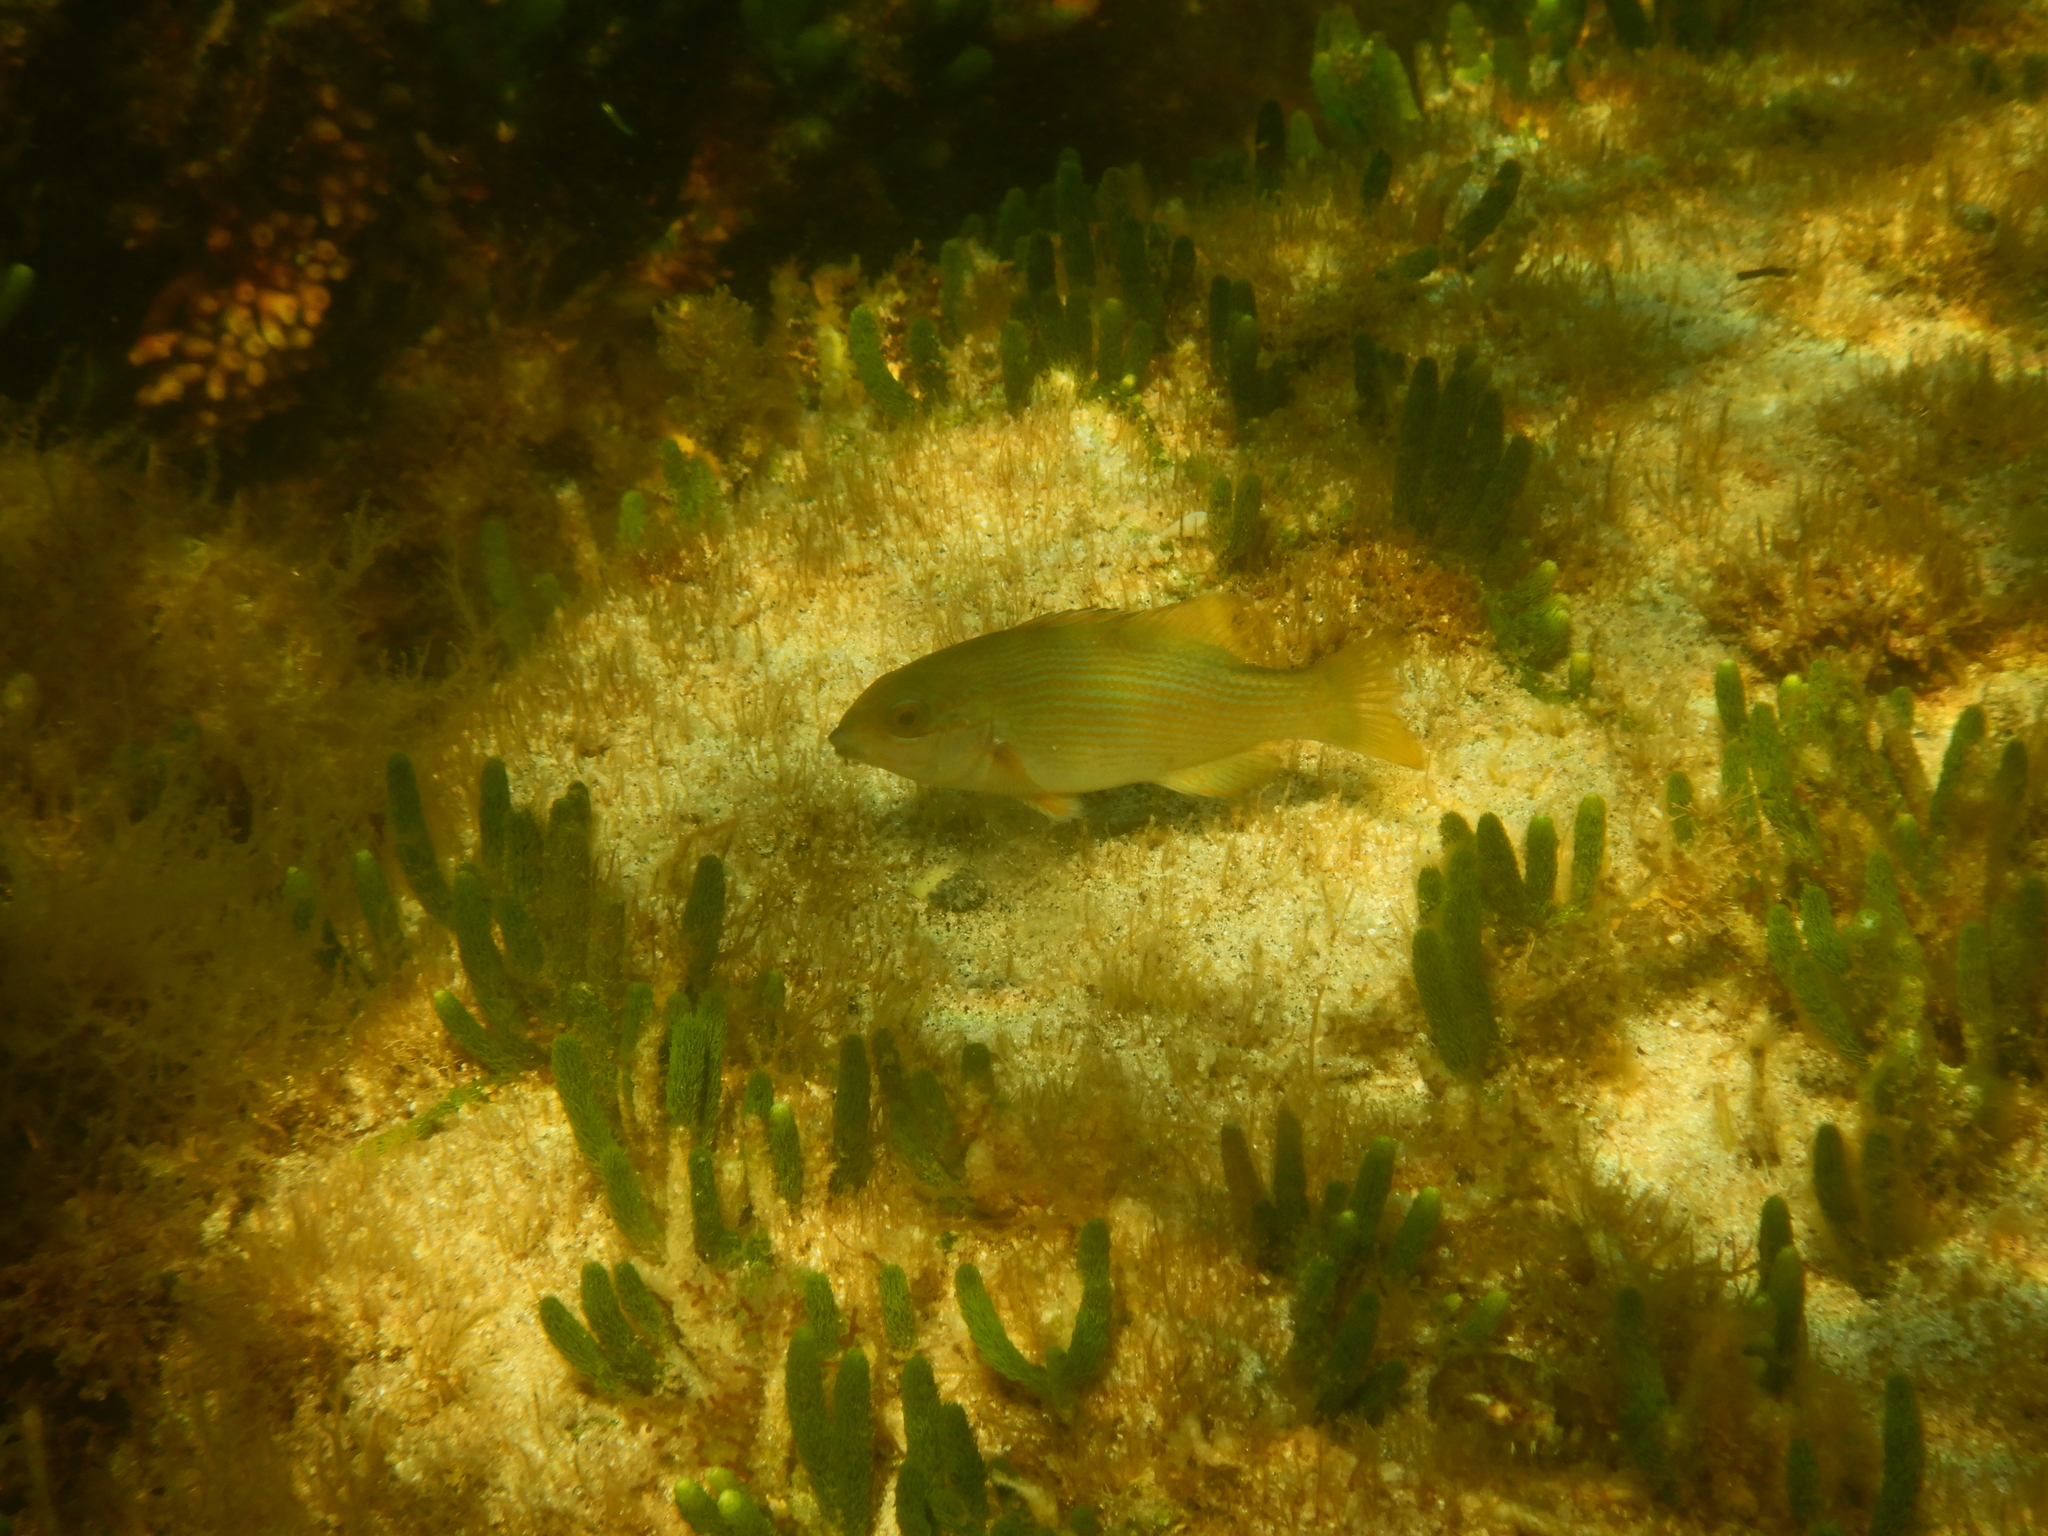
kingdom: Animalia
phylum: Chordata
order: Perciformes
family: Labridae
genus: Achoerodus
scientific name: Achoerodus gouldii
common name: Western blue groper
